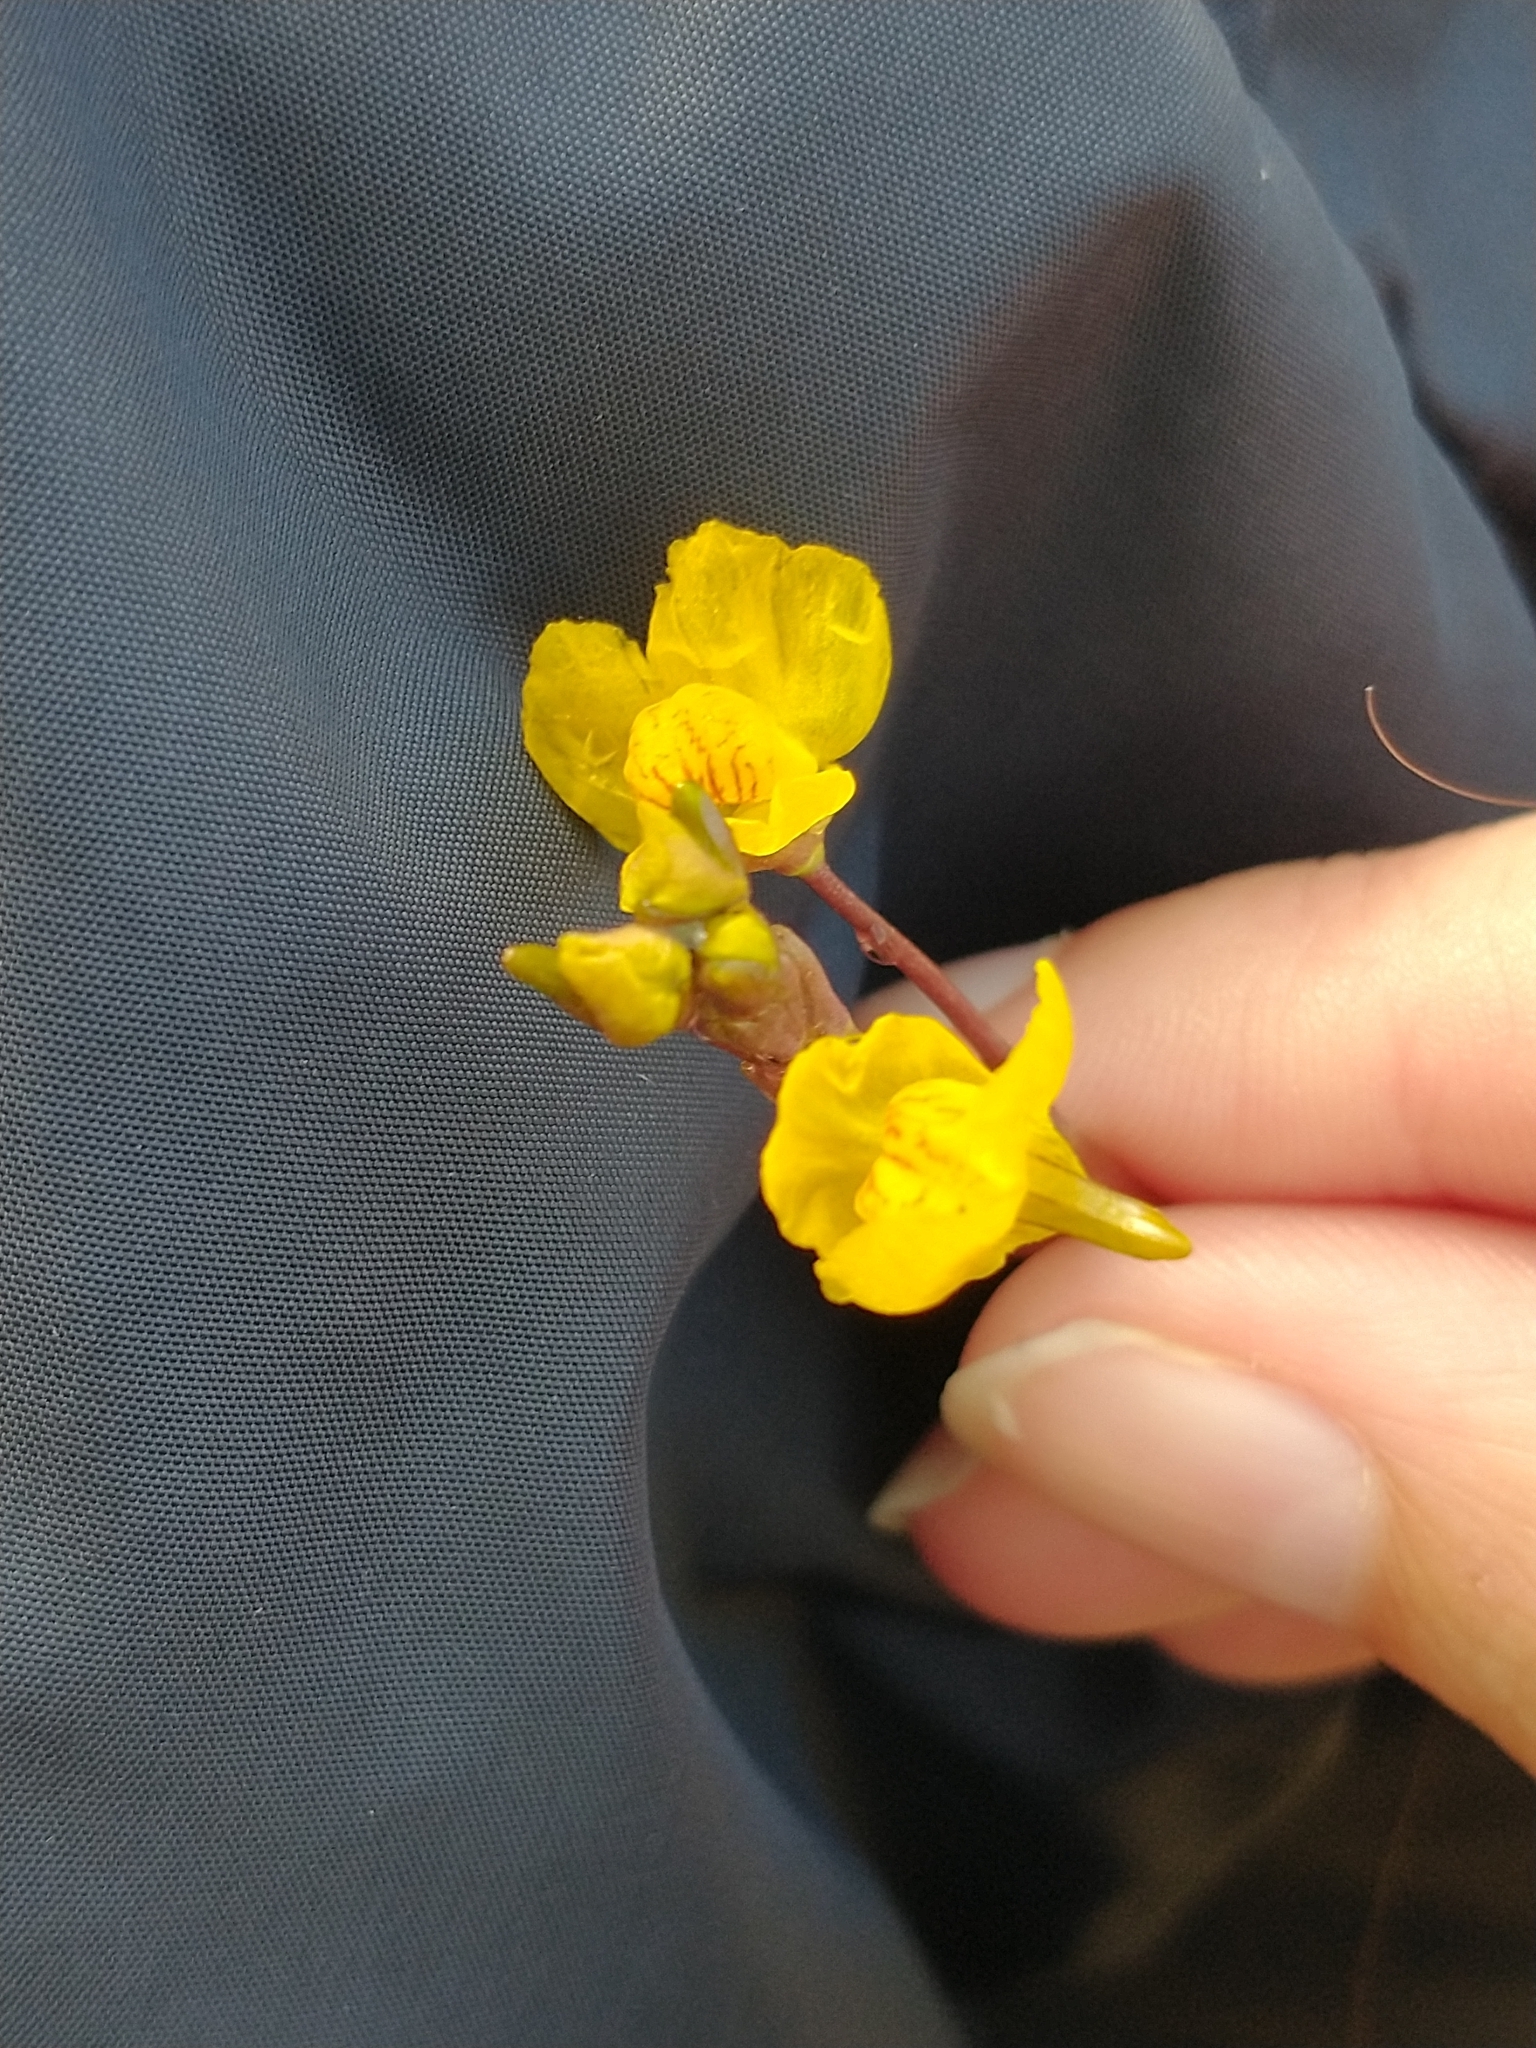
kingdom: Plantae
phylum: Tracheophyta
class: Magnoliopsida
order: Lamiales
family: Lentibulariaceae
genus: Utricularia
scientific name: Utricularia australis
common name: Bladderwort
